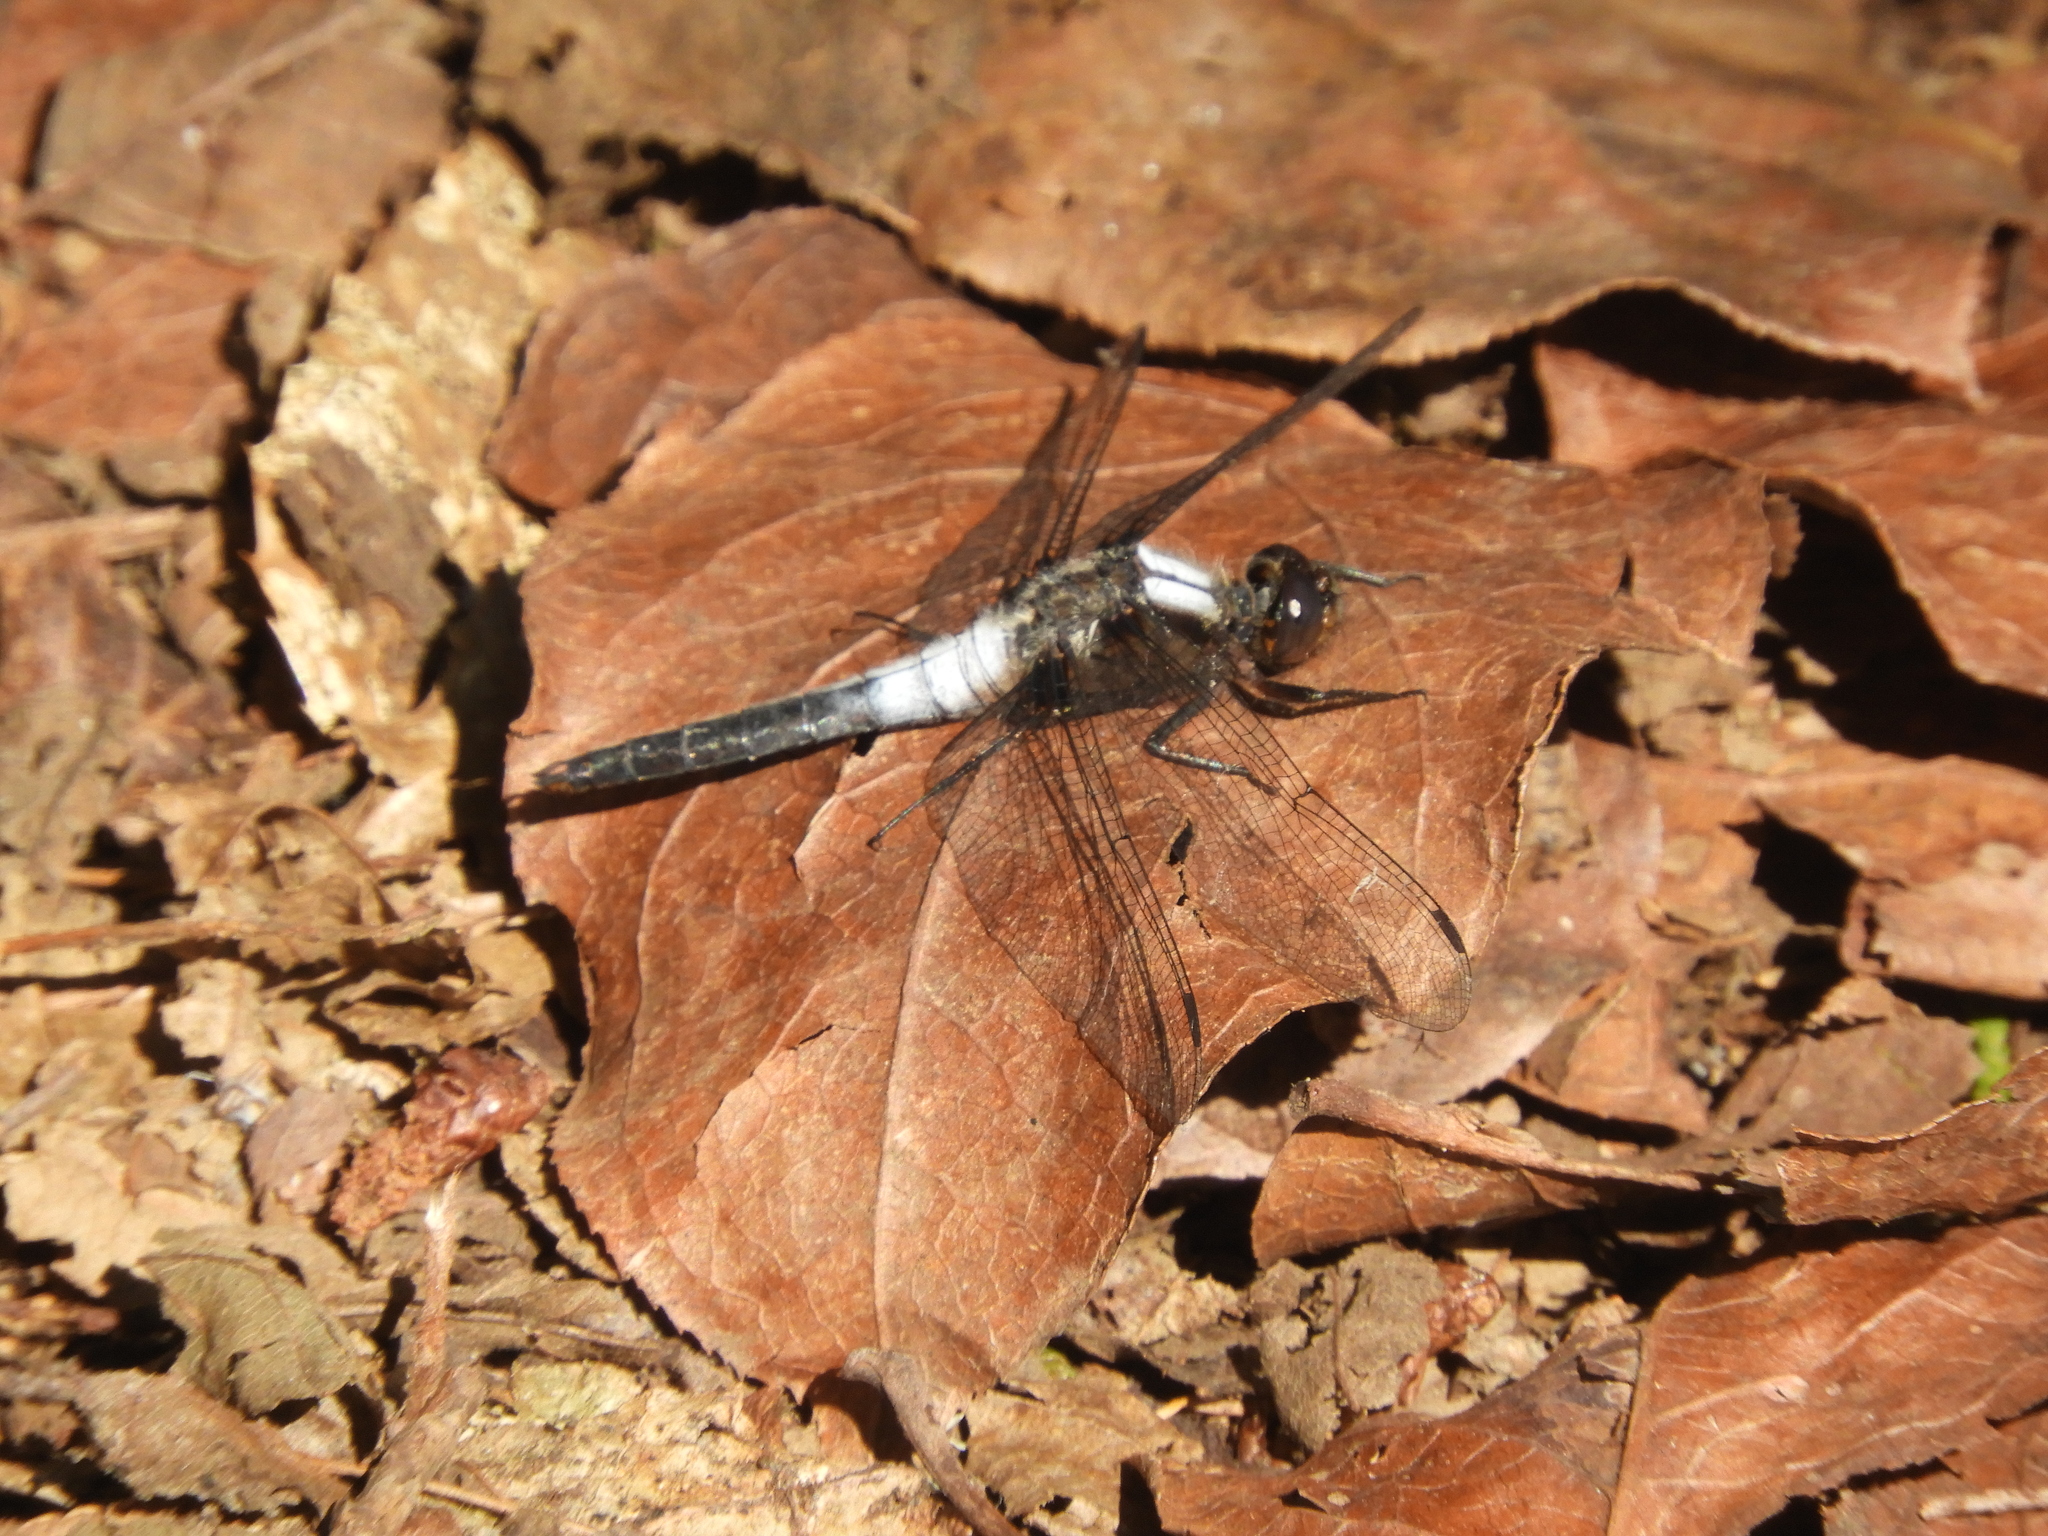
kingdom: Animalia
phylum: Arthropoda
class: Insecta
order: Odonata
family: Libellulidae
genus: Ladona
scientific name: Ladona julia
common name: Chalk-fronted corporal
